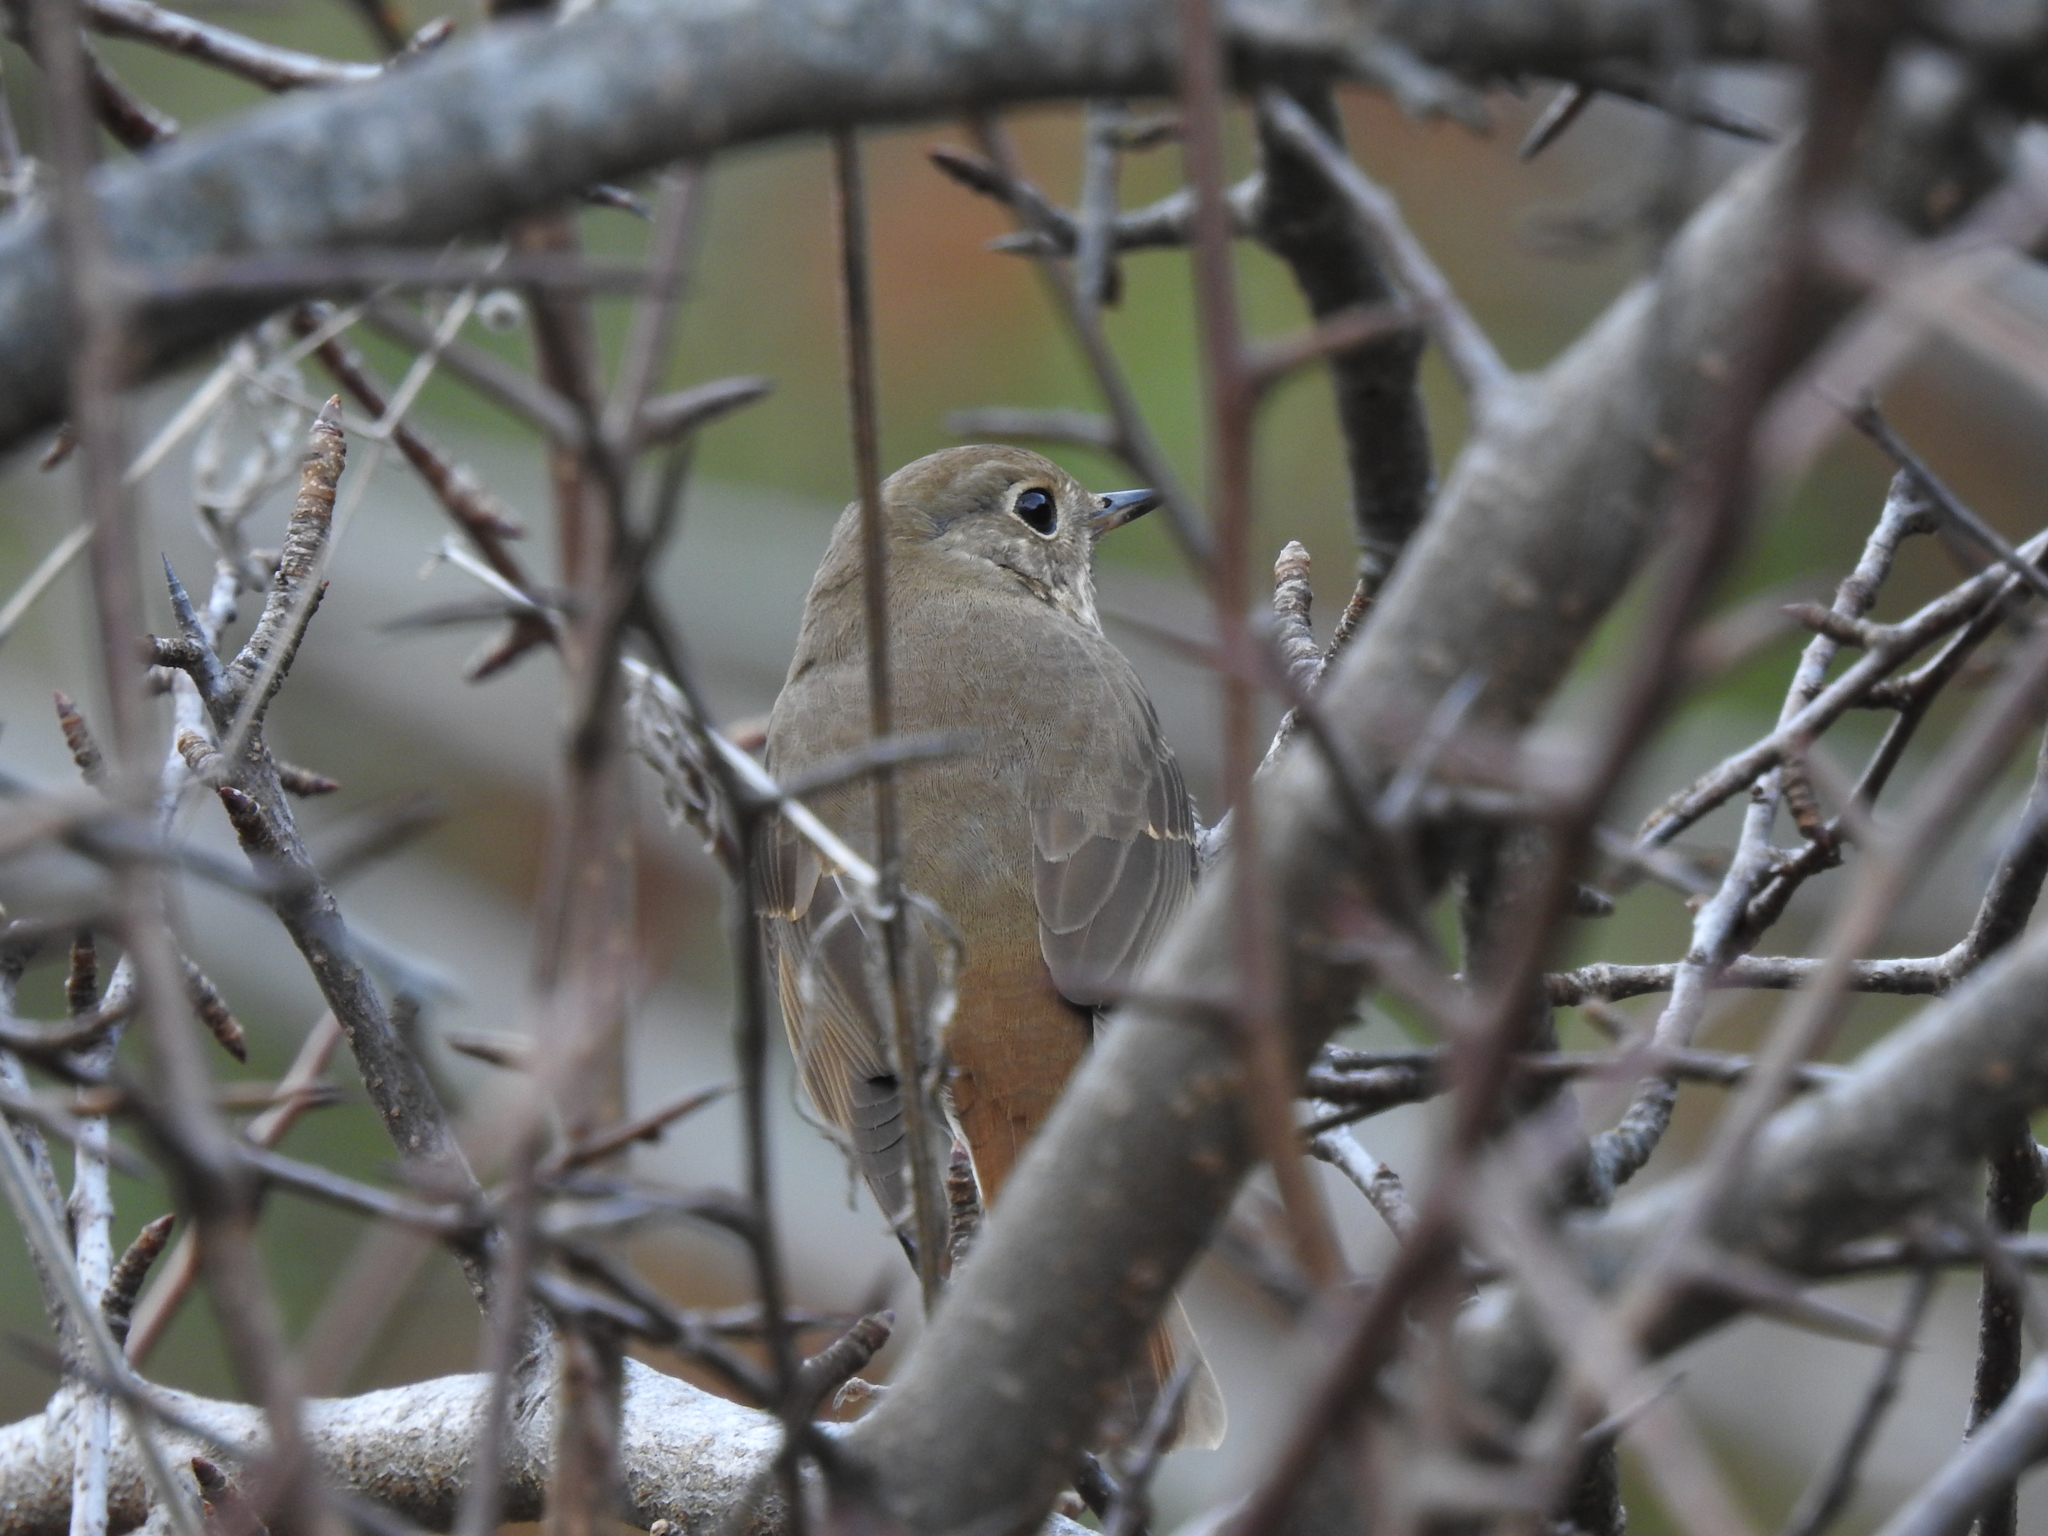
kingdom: Animalia
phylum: Chordata
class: Aves
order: Passeriformes
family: Turdidae
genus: Catharus
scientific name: Catharus guttatus
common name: Hermit thrush
